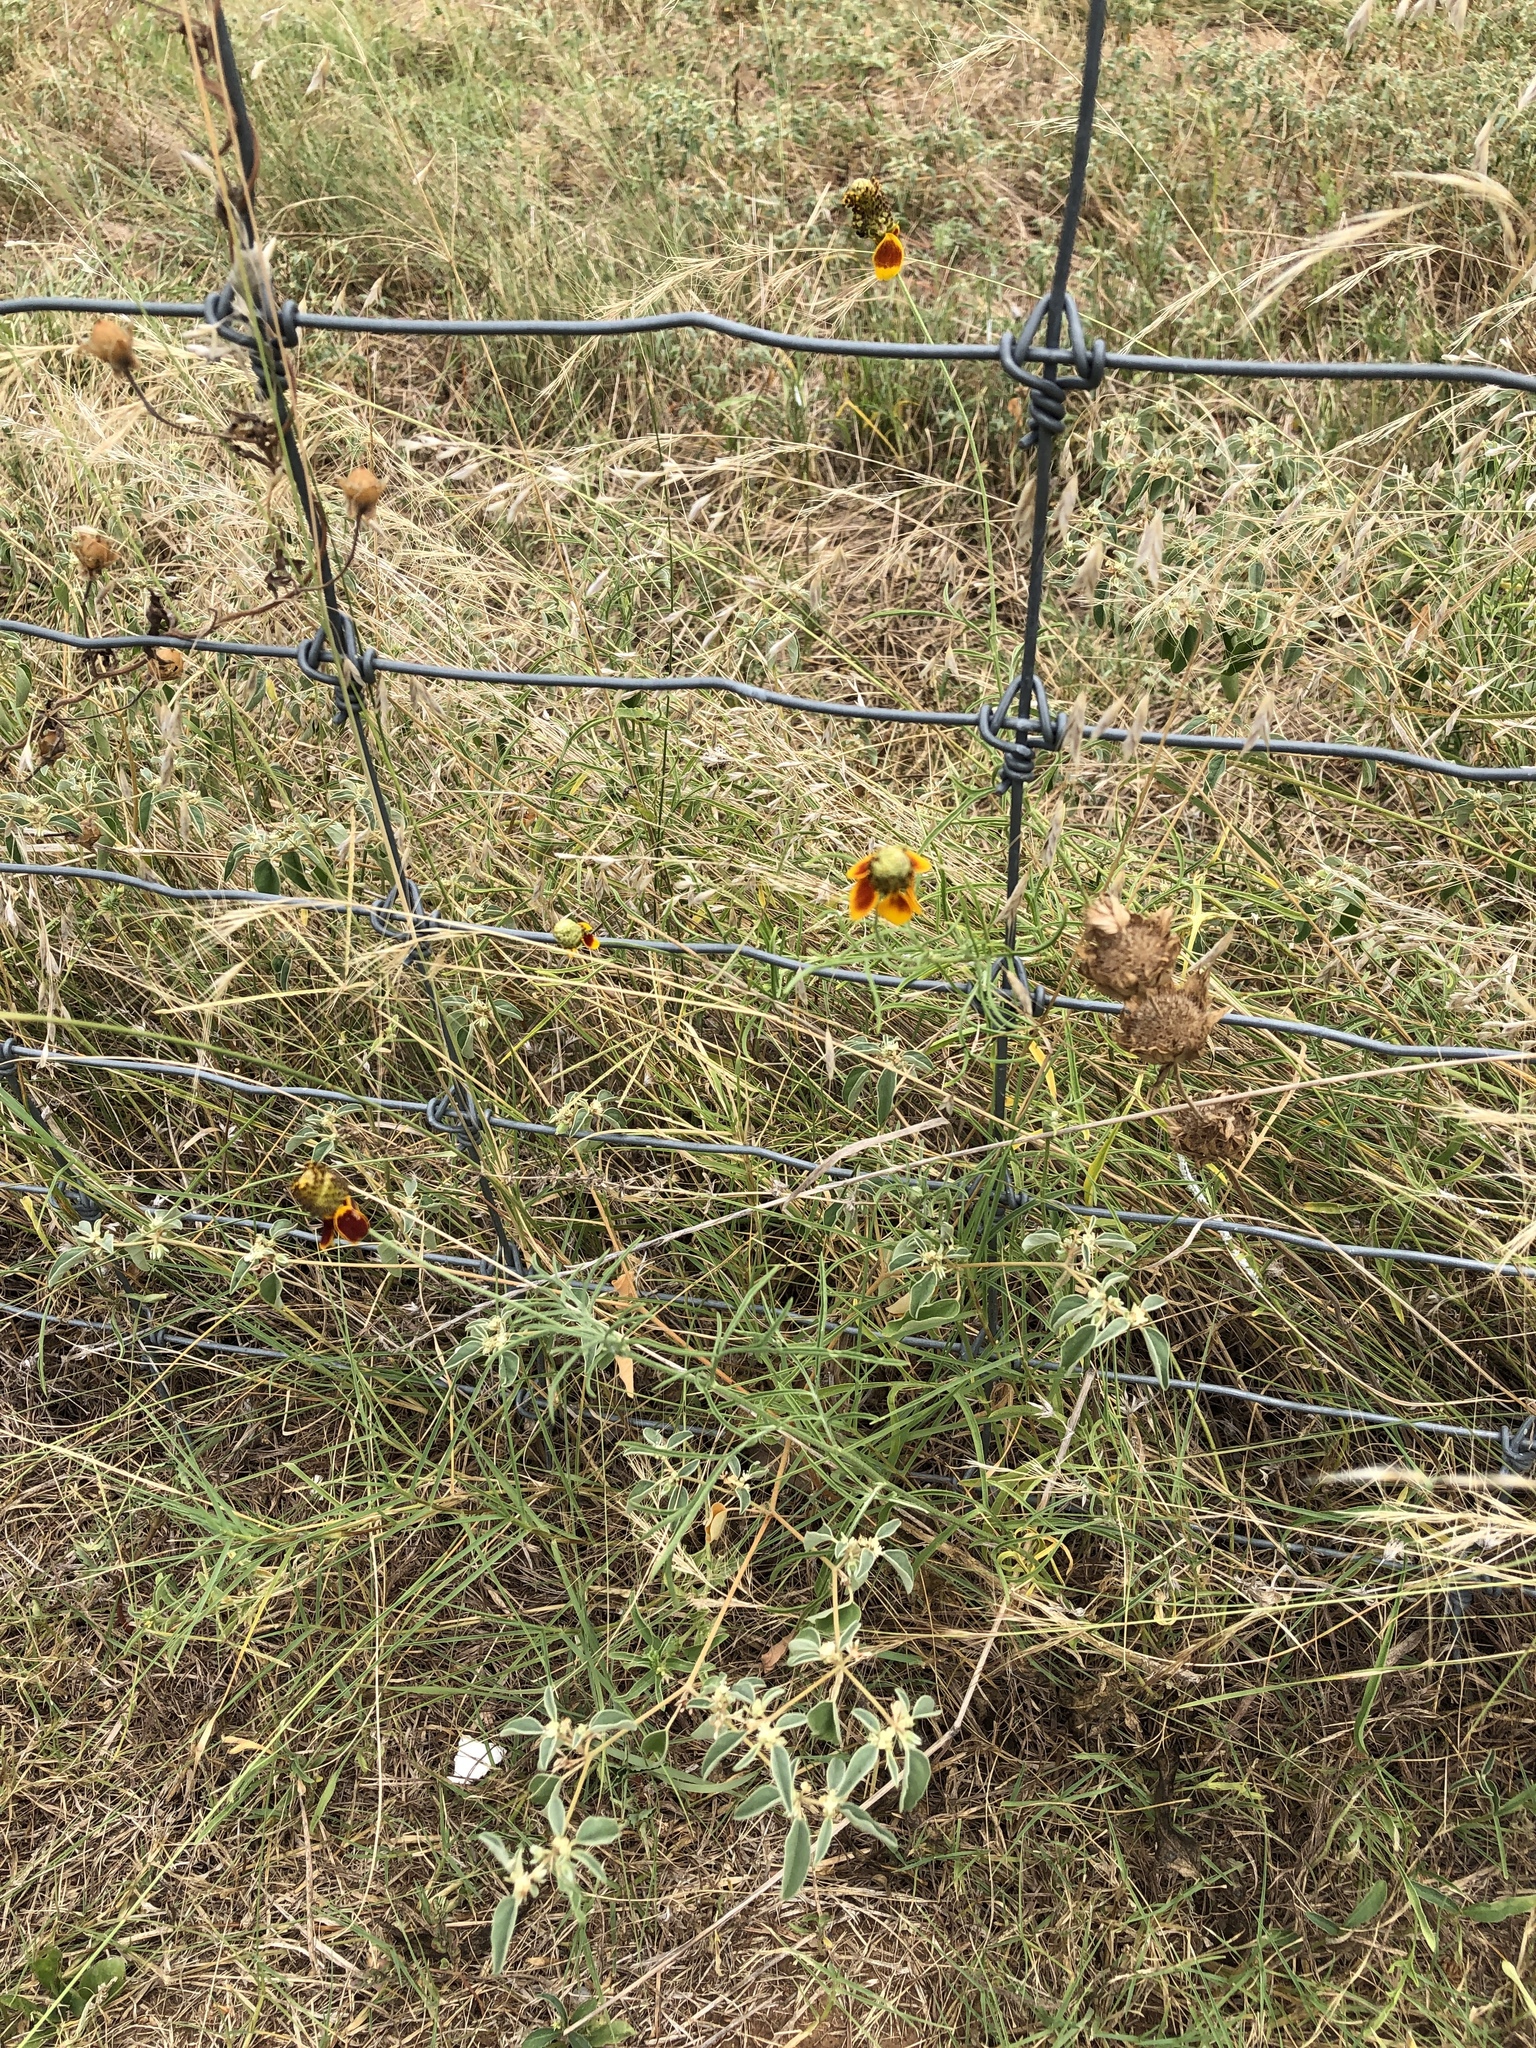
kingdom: Plantae
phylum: Tracheophyta
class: Magnoliopsida
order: Asterales
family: Asteraceae
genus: Ratibida
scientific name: Ratibida columnifera
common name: Prairie coneflower
